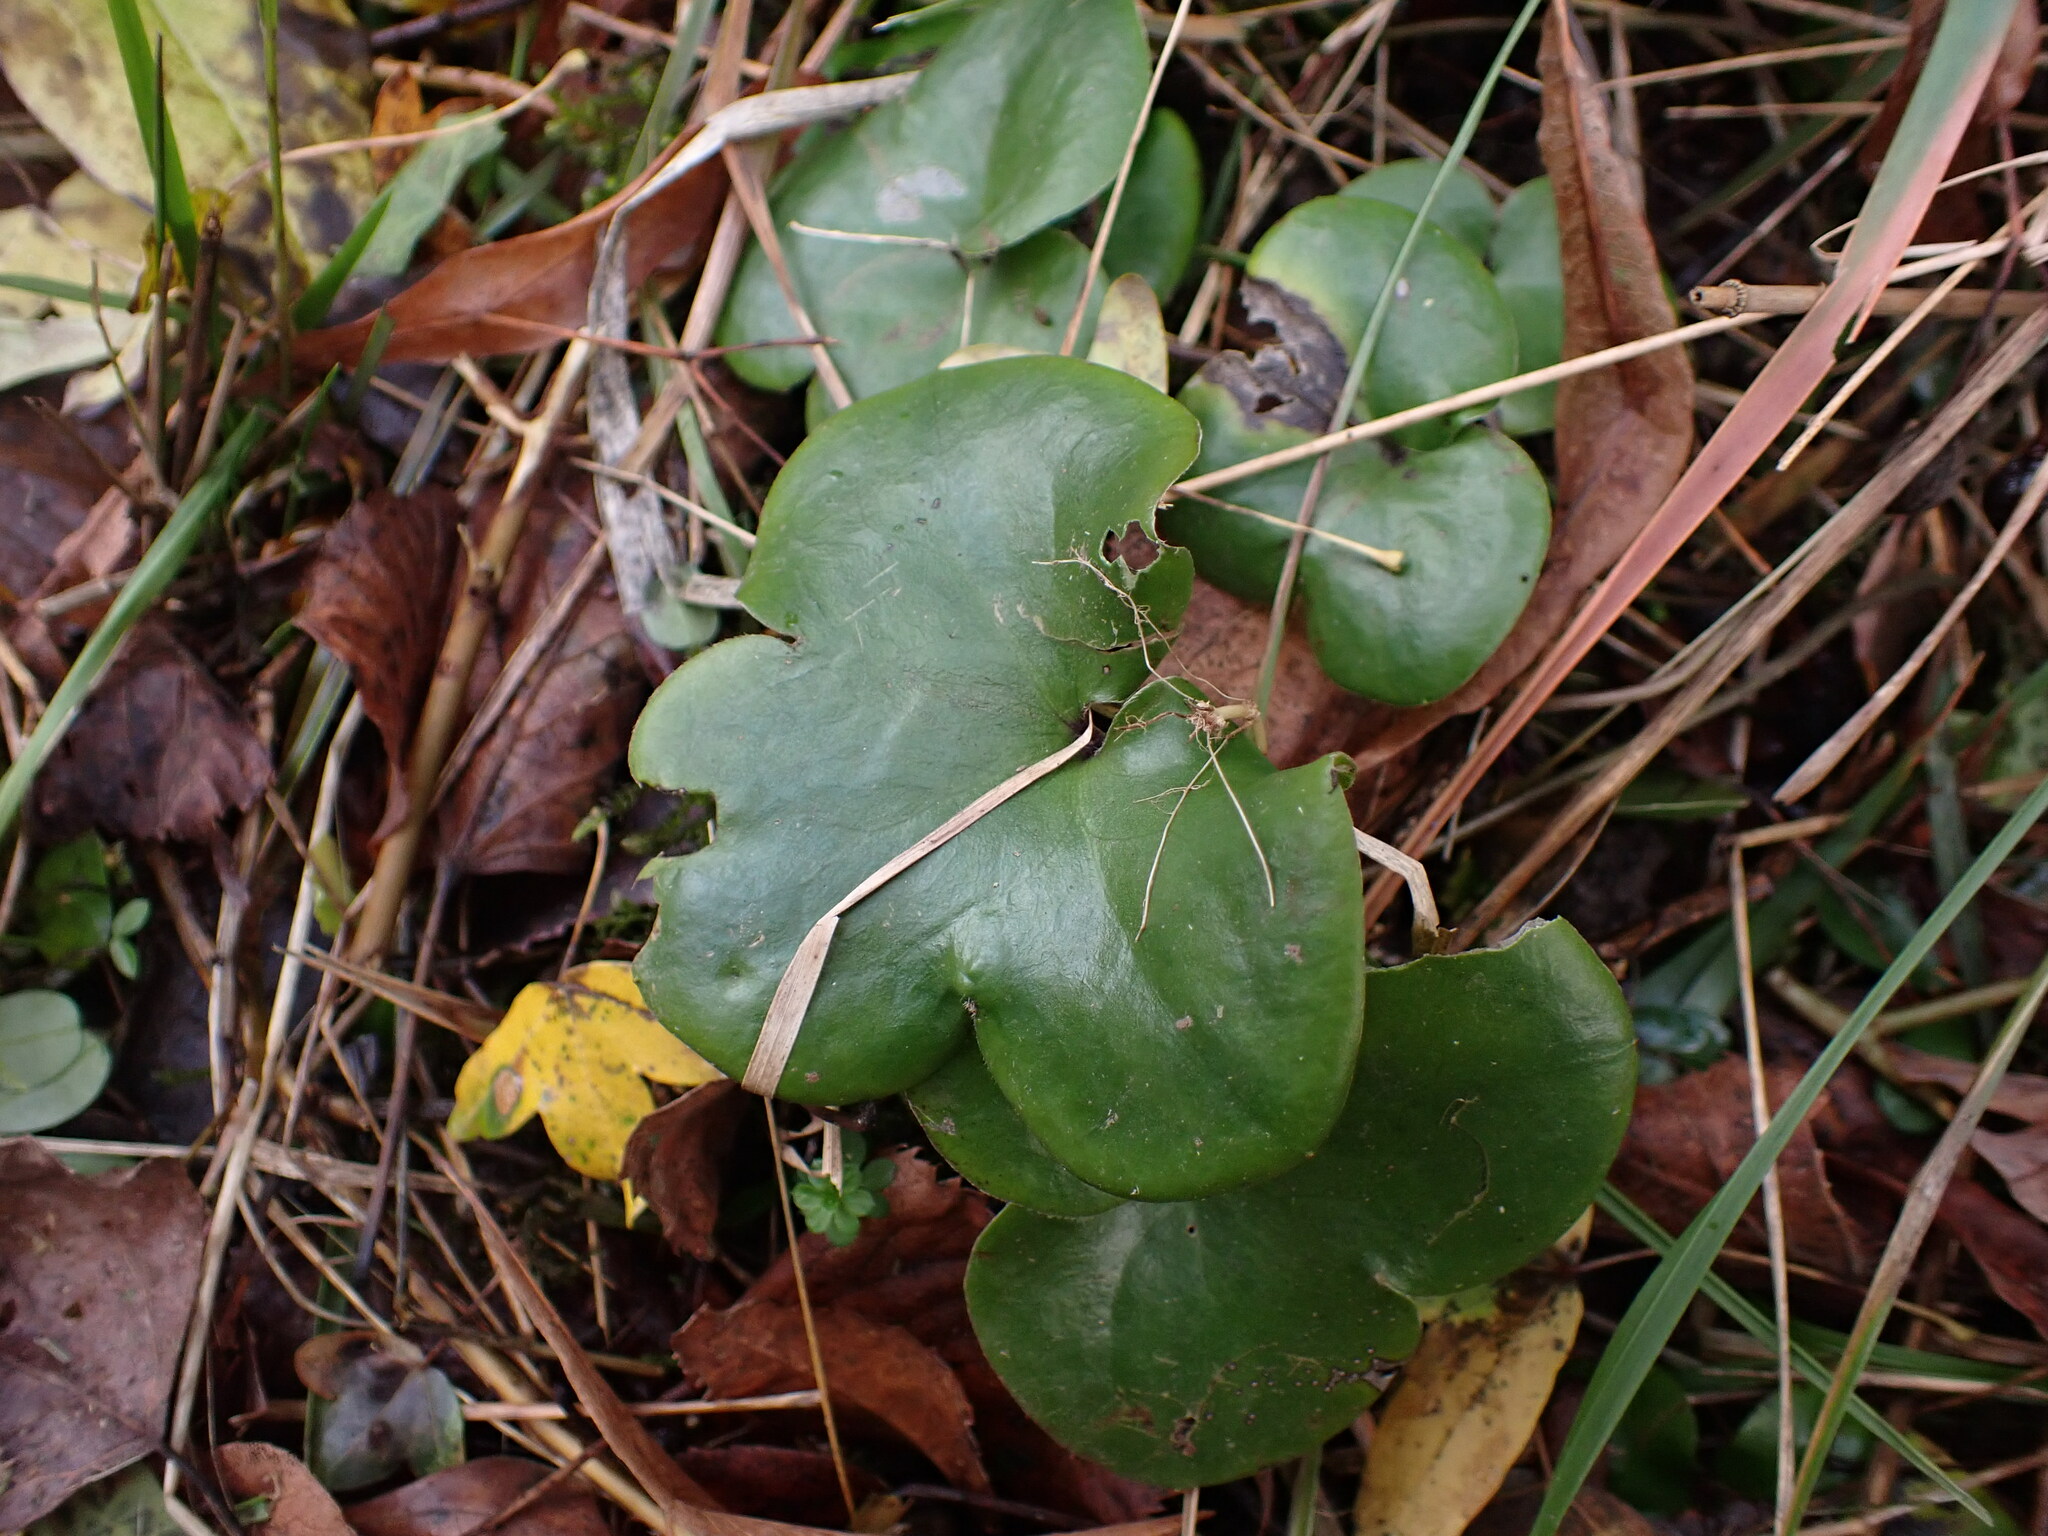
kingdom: Plantae
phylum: Tracheophyta
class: Magnoliopsida
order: Ranunculales
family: Ranunculaceae
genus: Hepatica
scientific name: Hepatica nobilis
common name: Liverleaf
